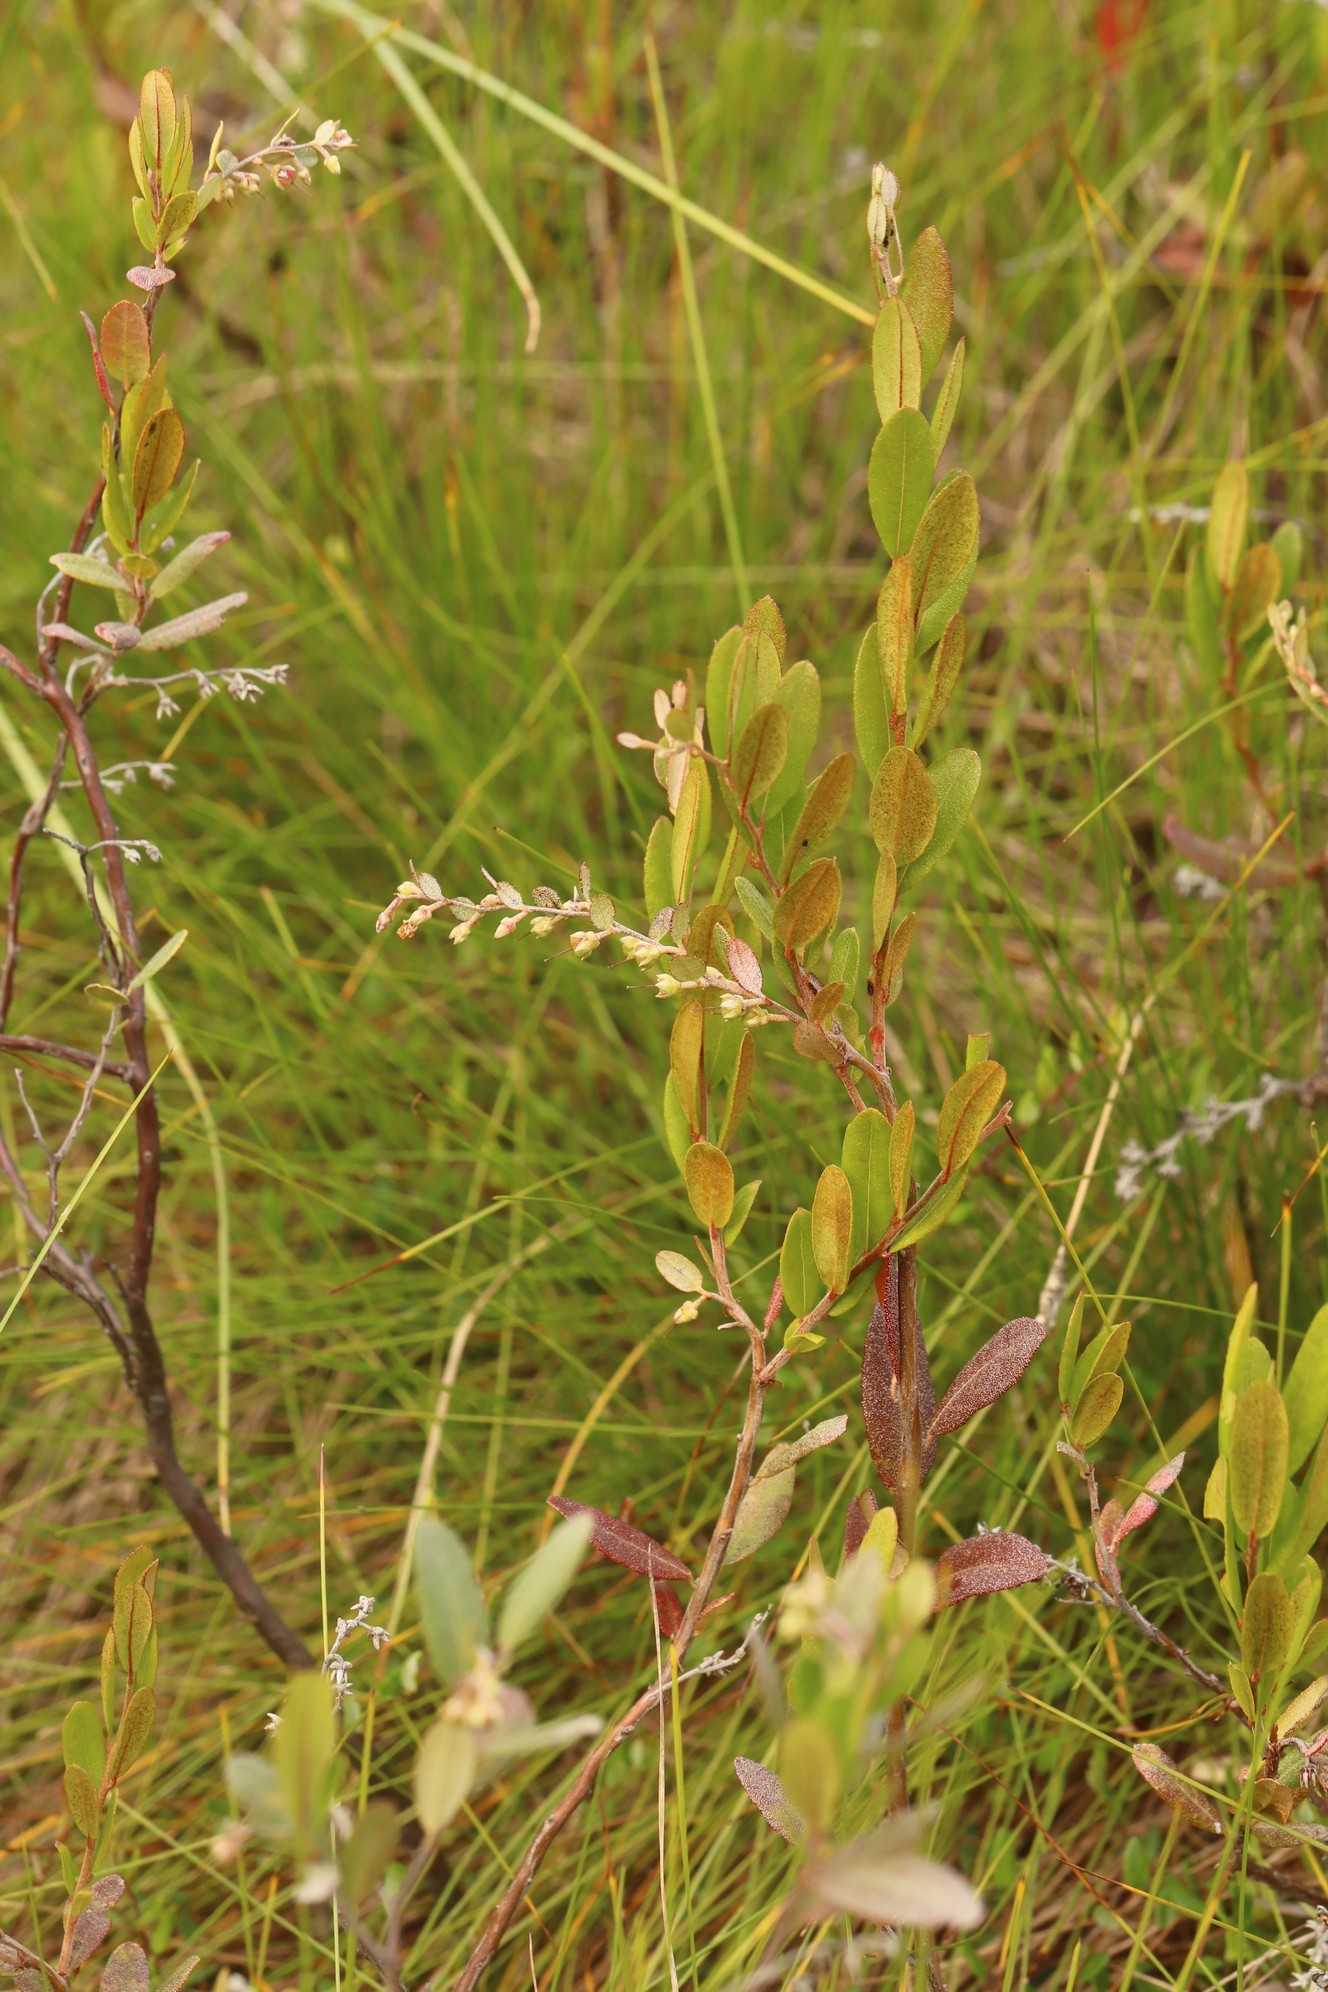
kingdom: Plantae
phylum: Tracheophyta
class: Magnoliopsida
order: Ericales
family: Ericaceae
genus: Chamaedaphne
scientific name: Chamaedaphne calyculata
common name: Leatherleaf
